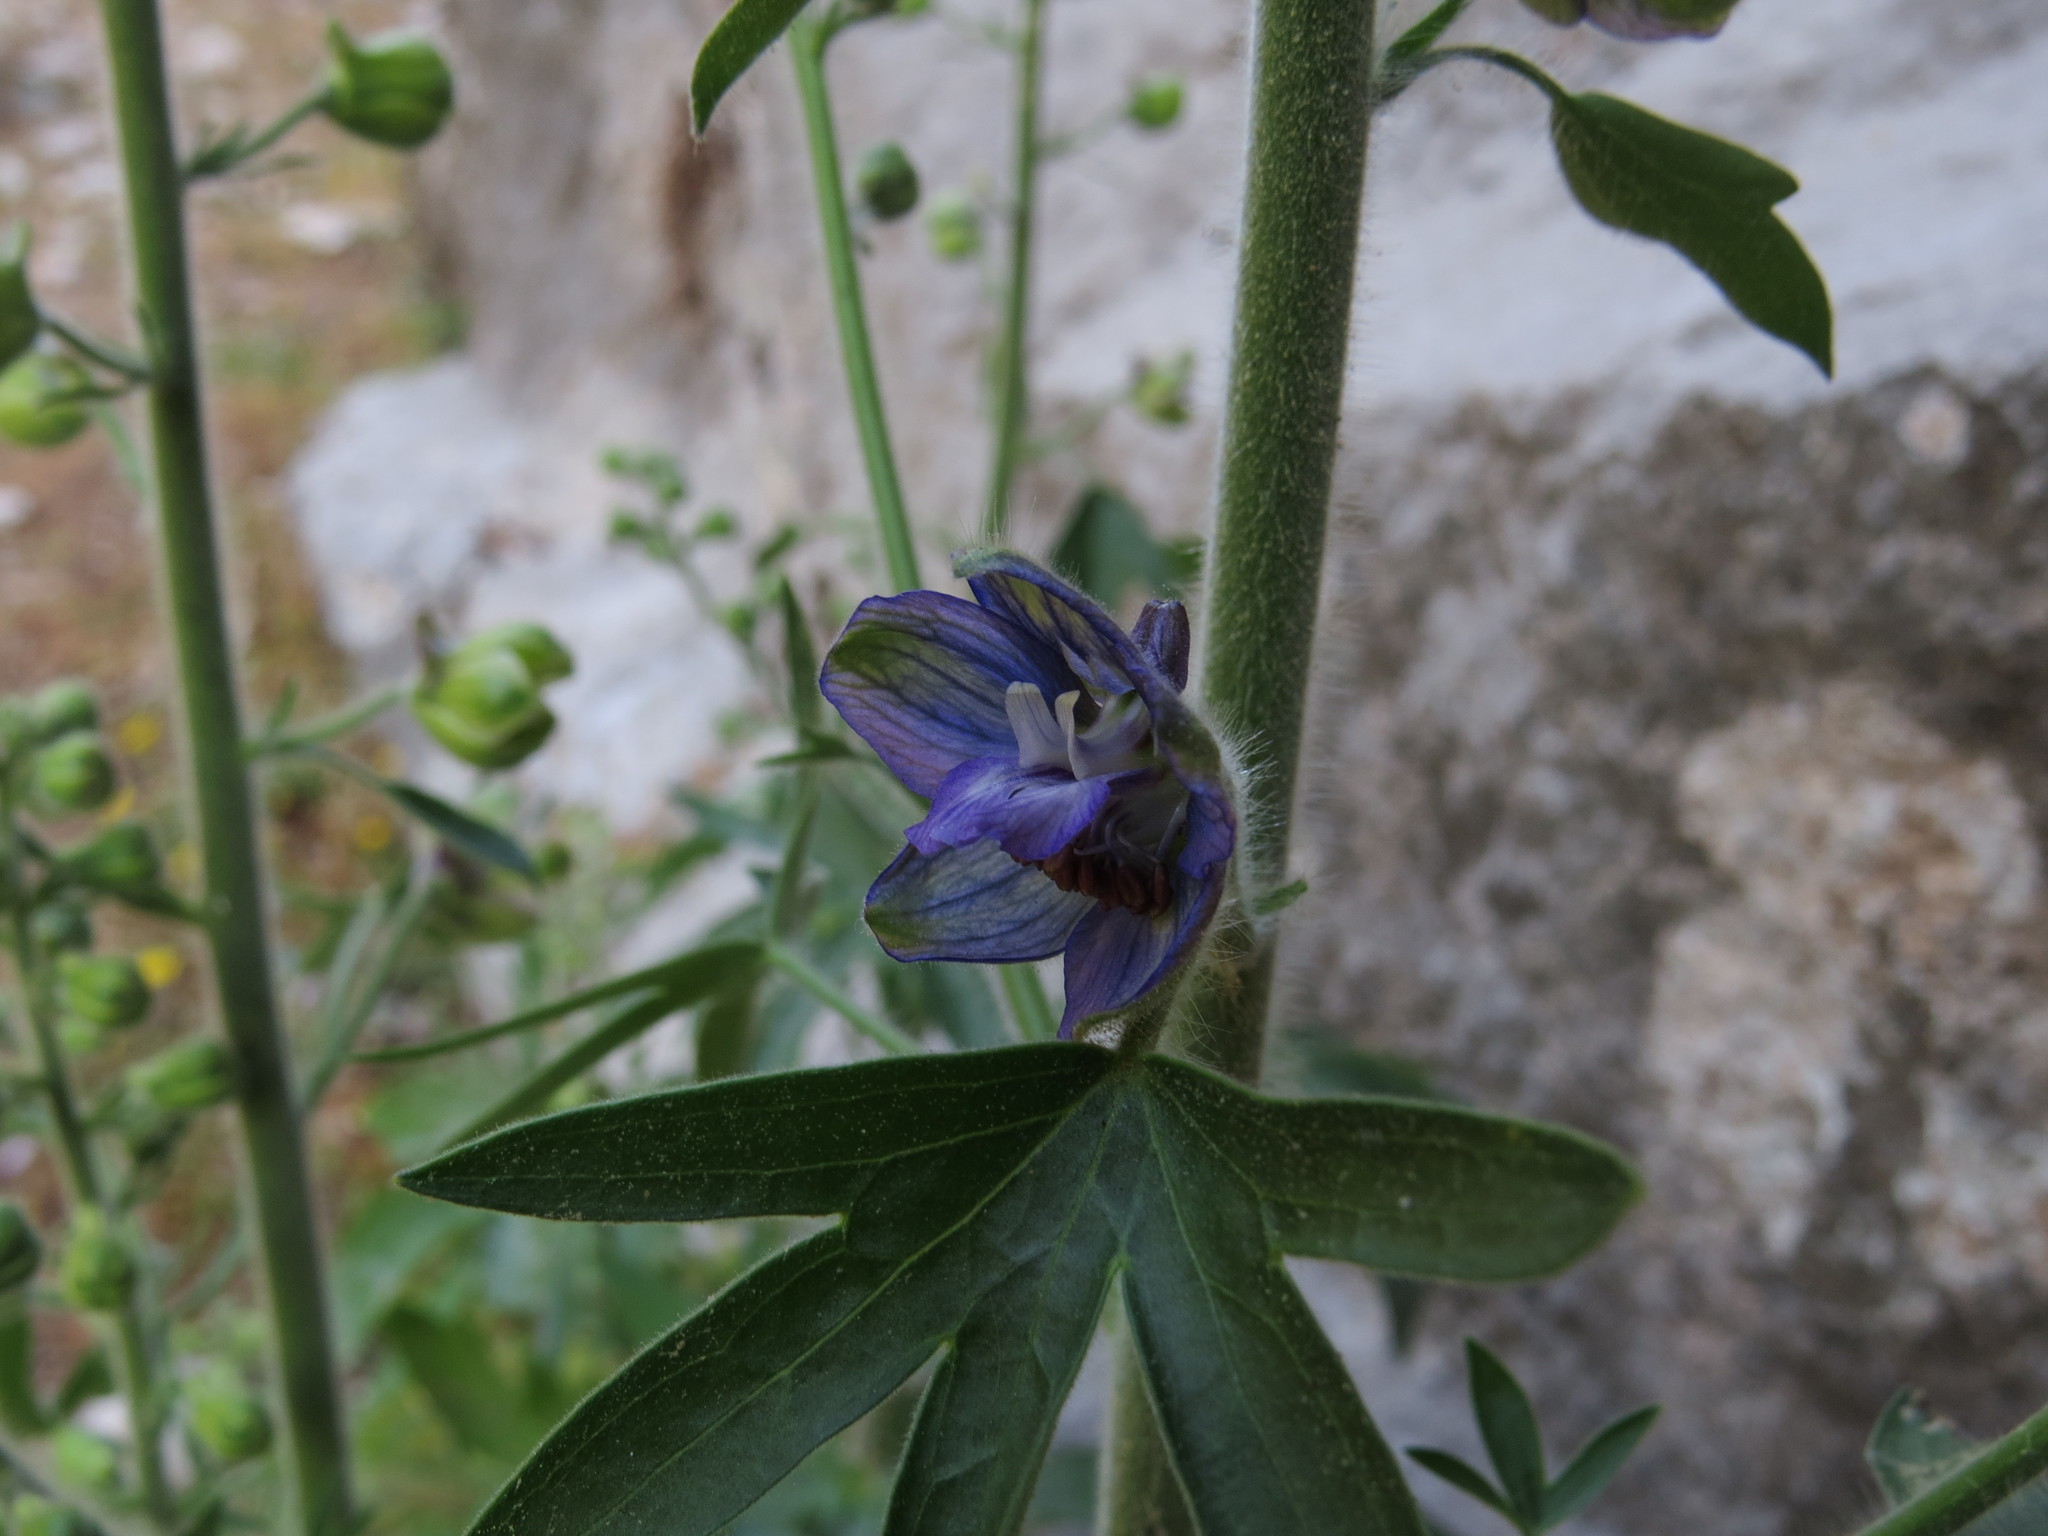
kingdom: Plantae
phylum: Tracheophyta
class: Magnoliopsida
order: Ranunculales
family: Ranunculaceae
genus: Staphisagria
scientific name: Staphisagria macrosperma
